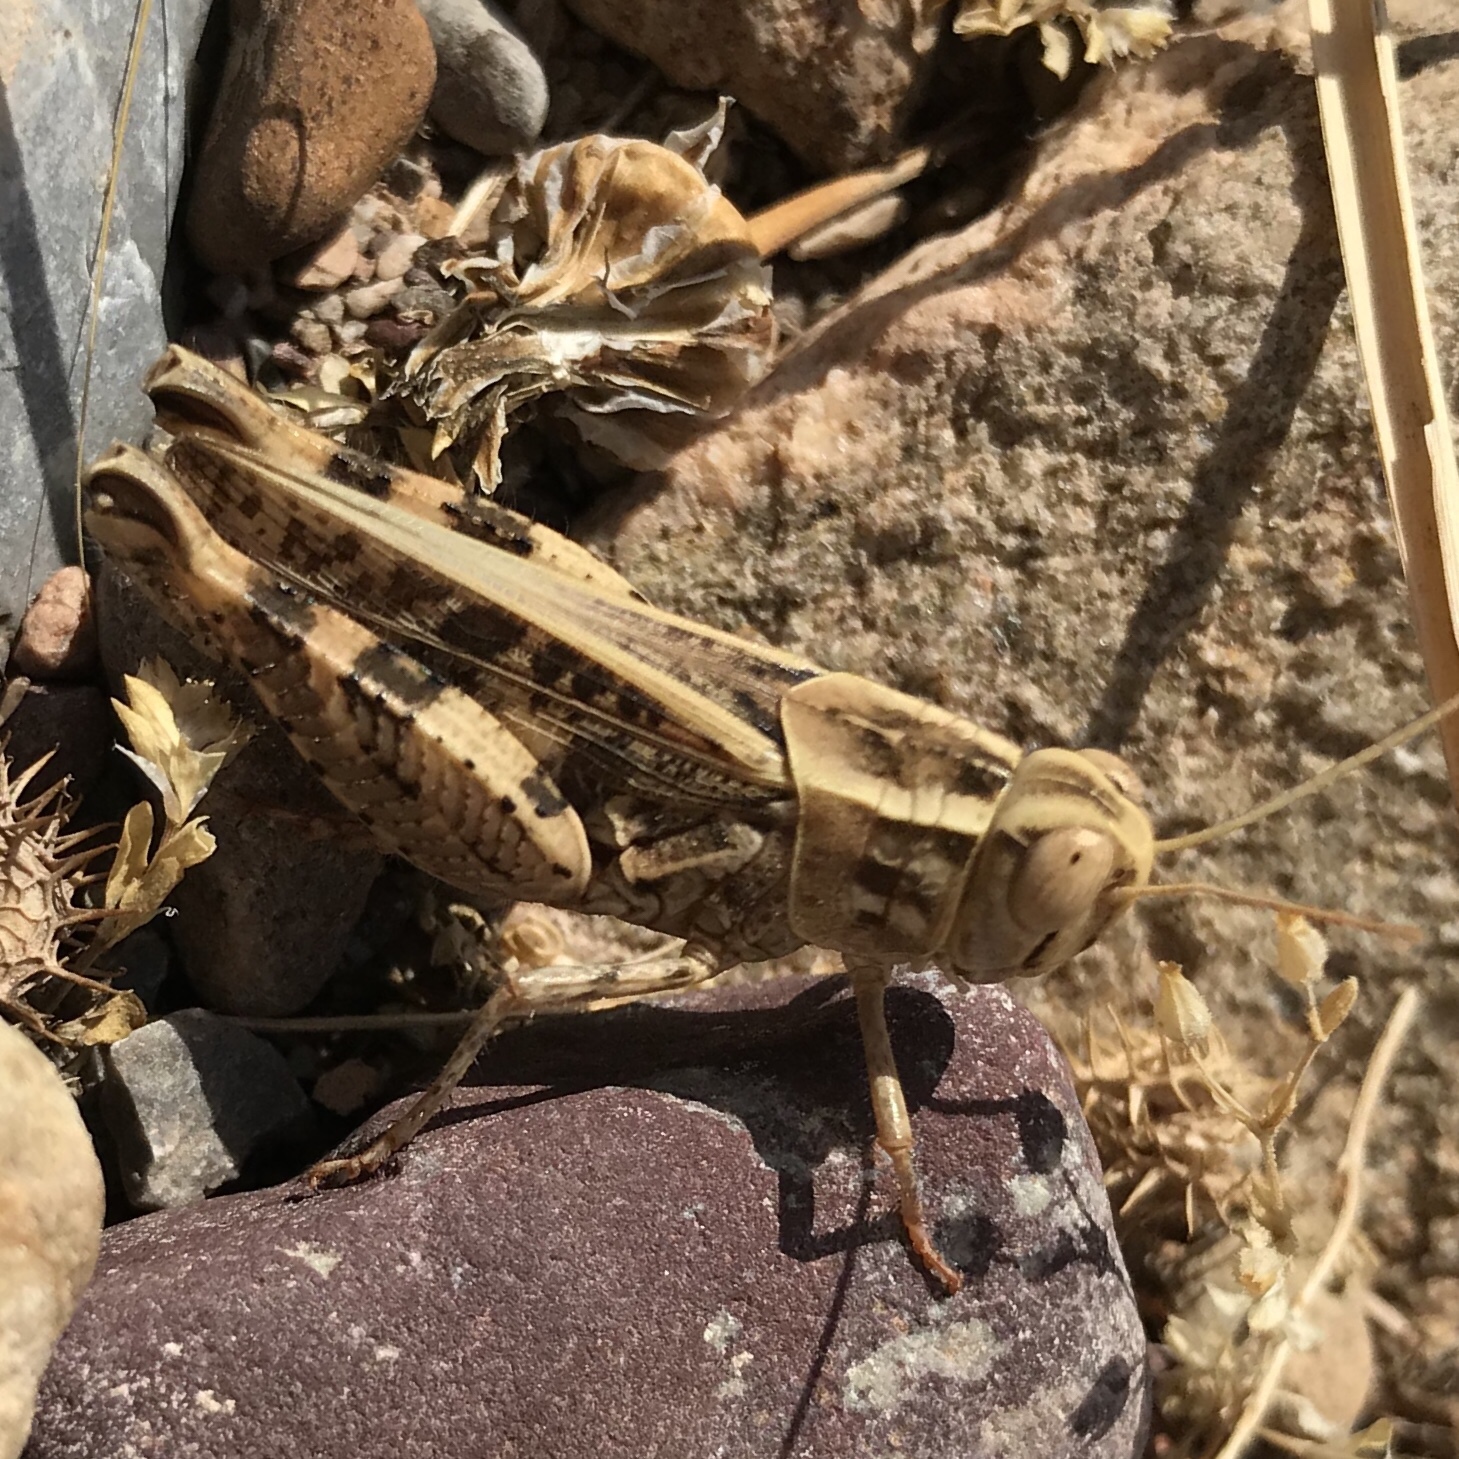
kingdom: Animalia
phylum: Arthropoda
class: Insecta
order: Orthoptera
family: Acrididae
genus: Calliptamus
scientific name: Calliptamus barbarus
